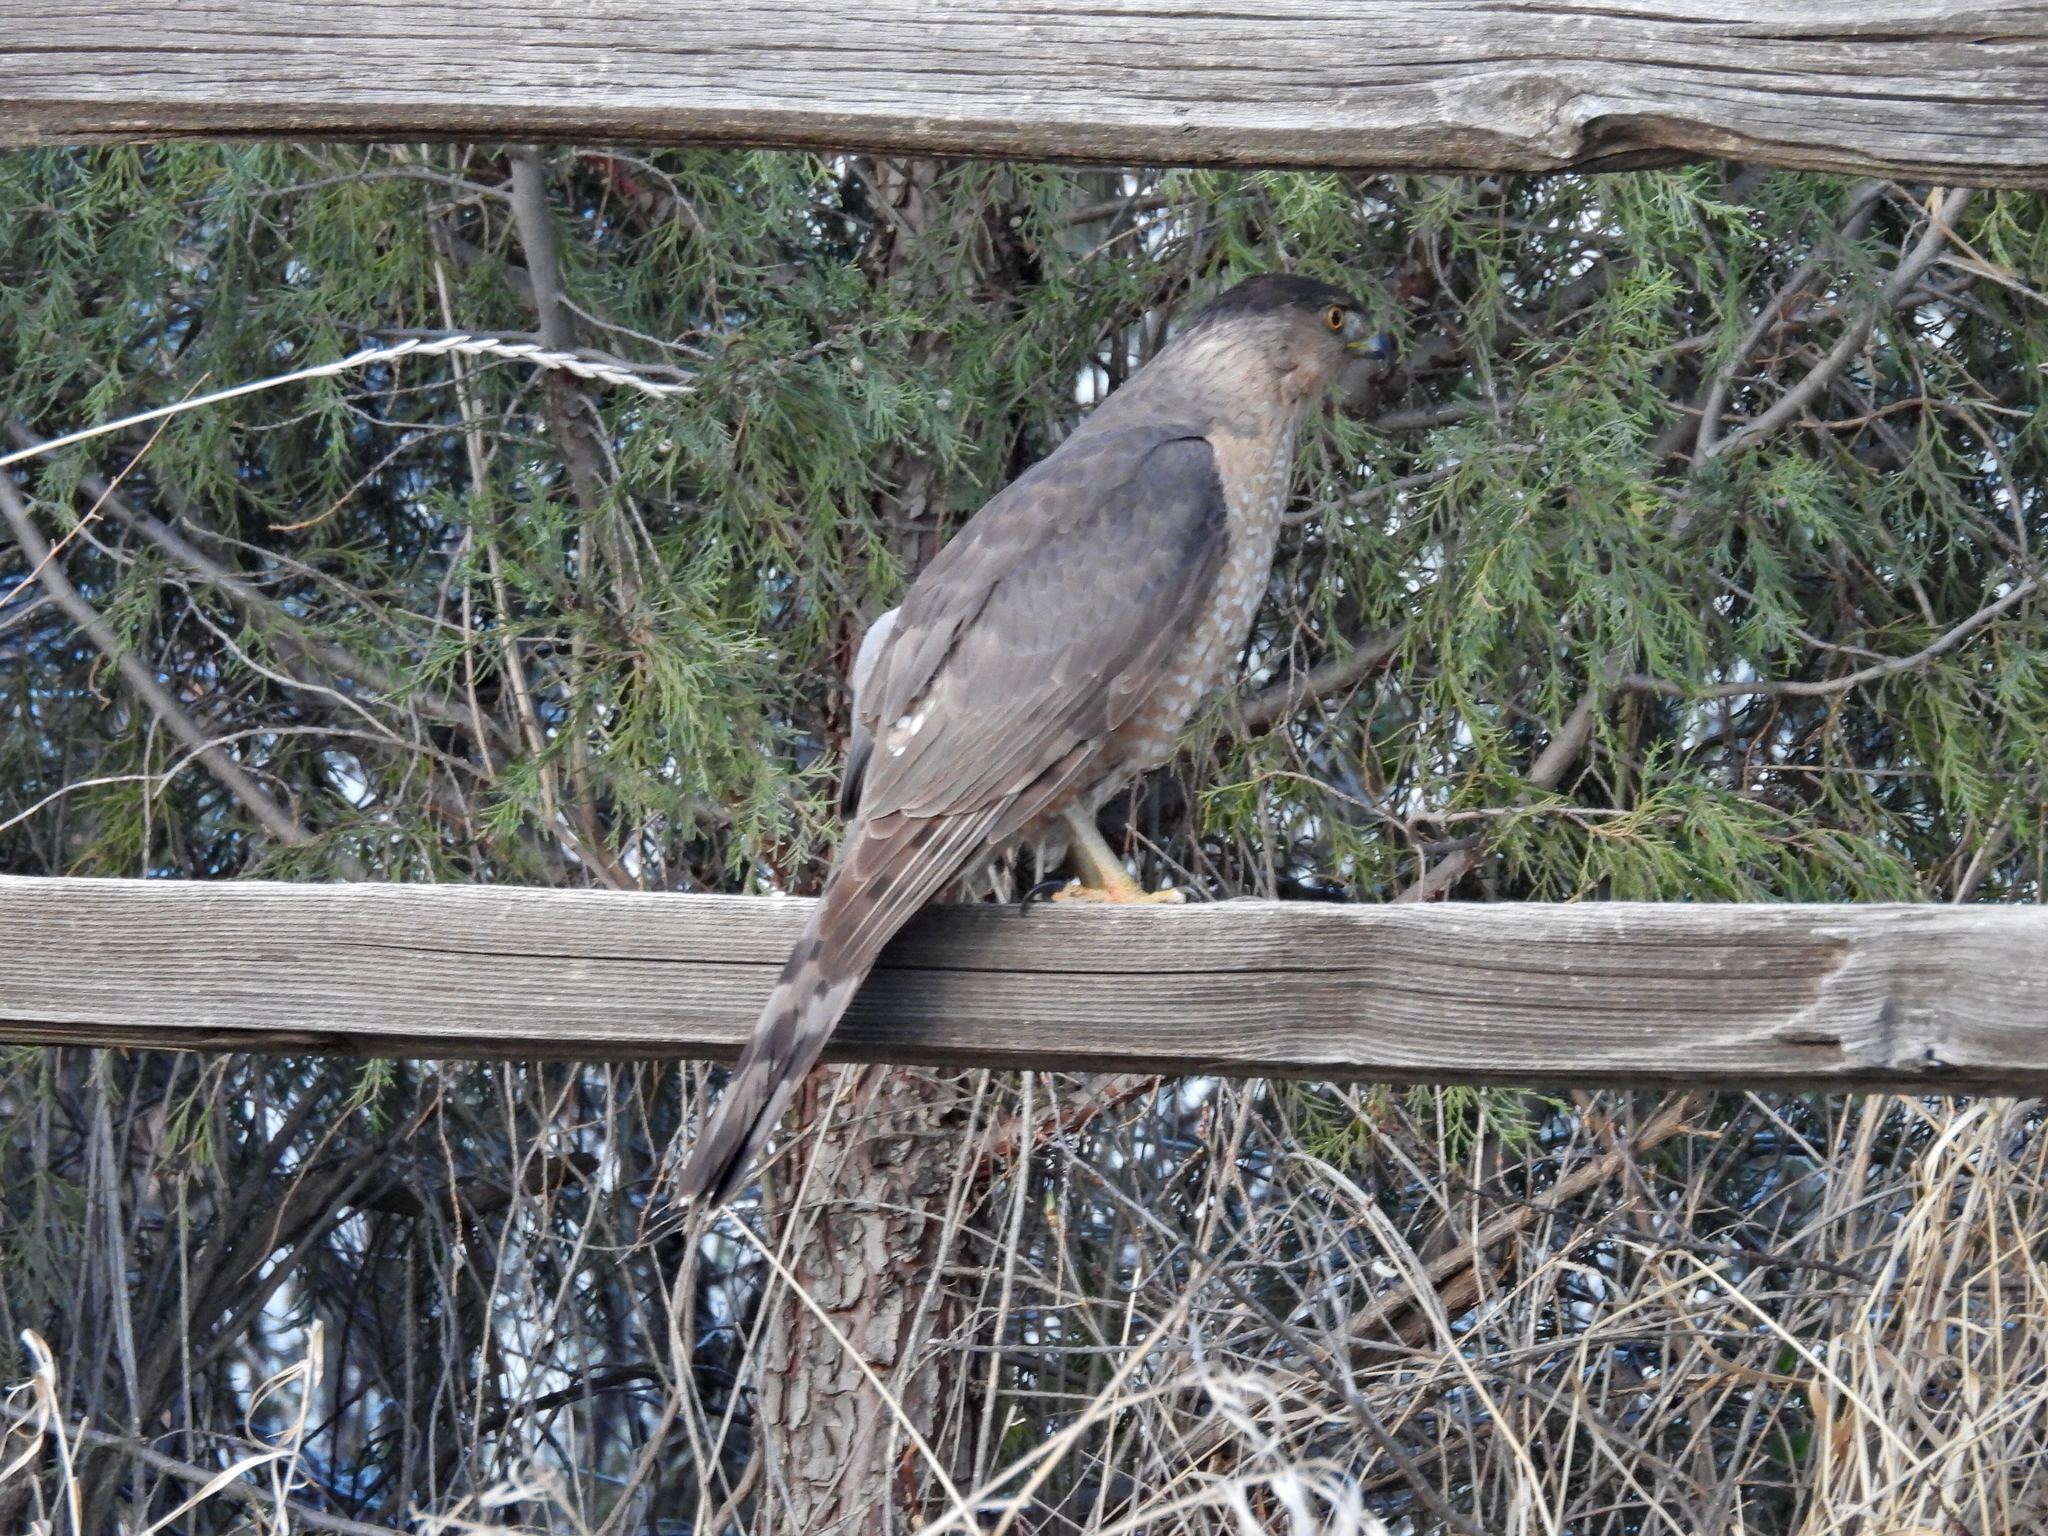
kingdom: Animalia
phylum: Chordata
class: Aves
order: Accipitriformes
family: Accipitridae
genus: Accipiter
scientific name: Accipiter cooperii
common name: Cooper's hawk
